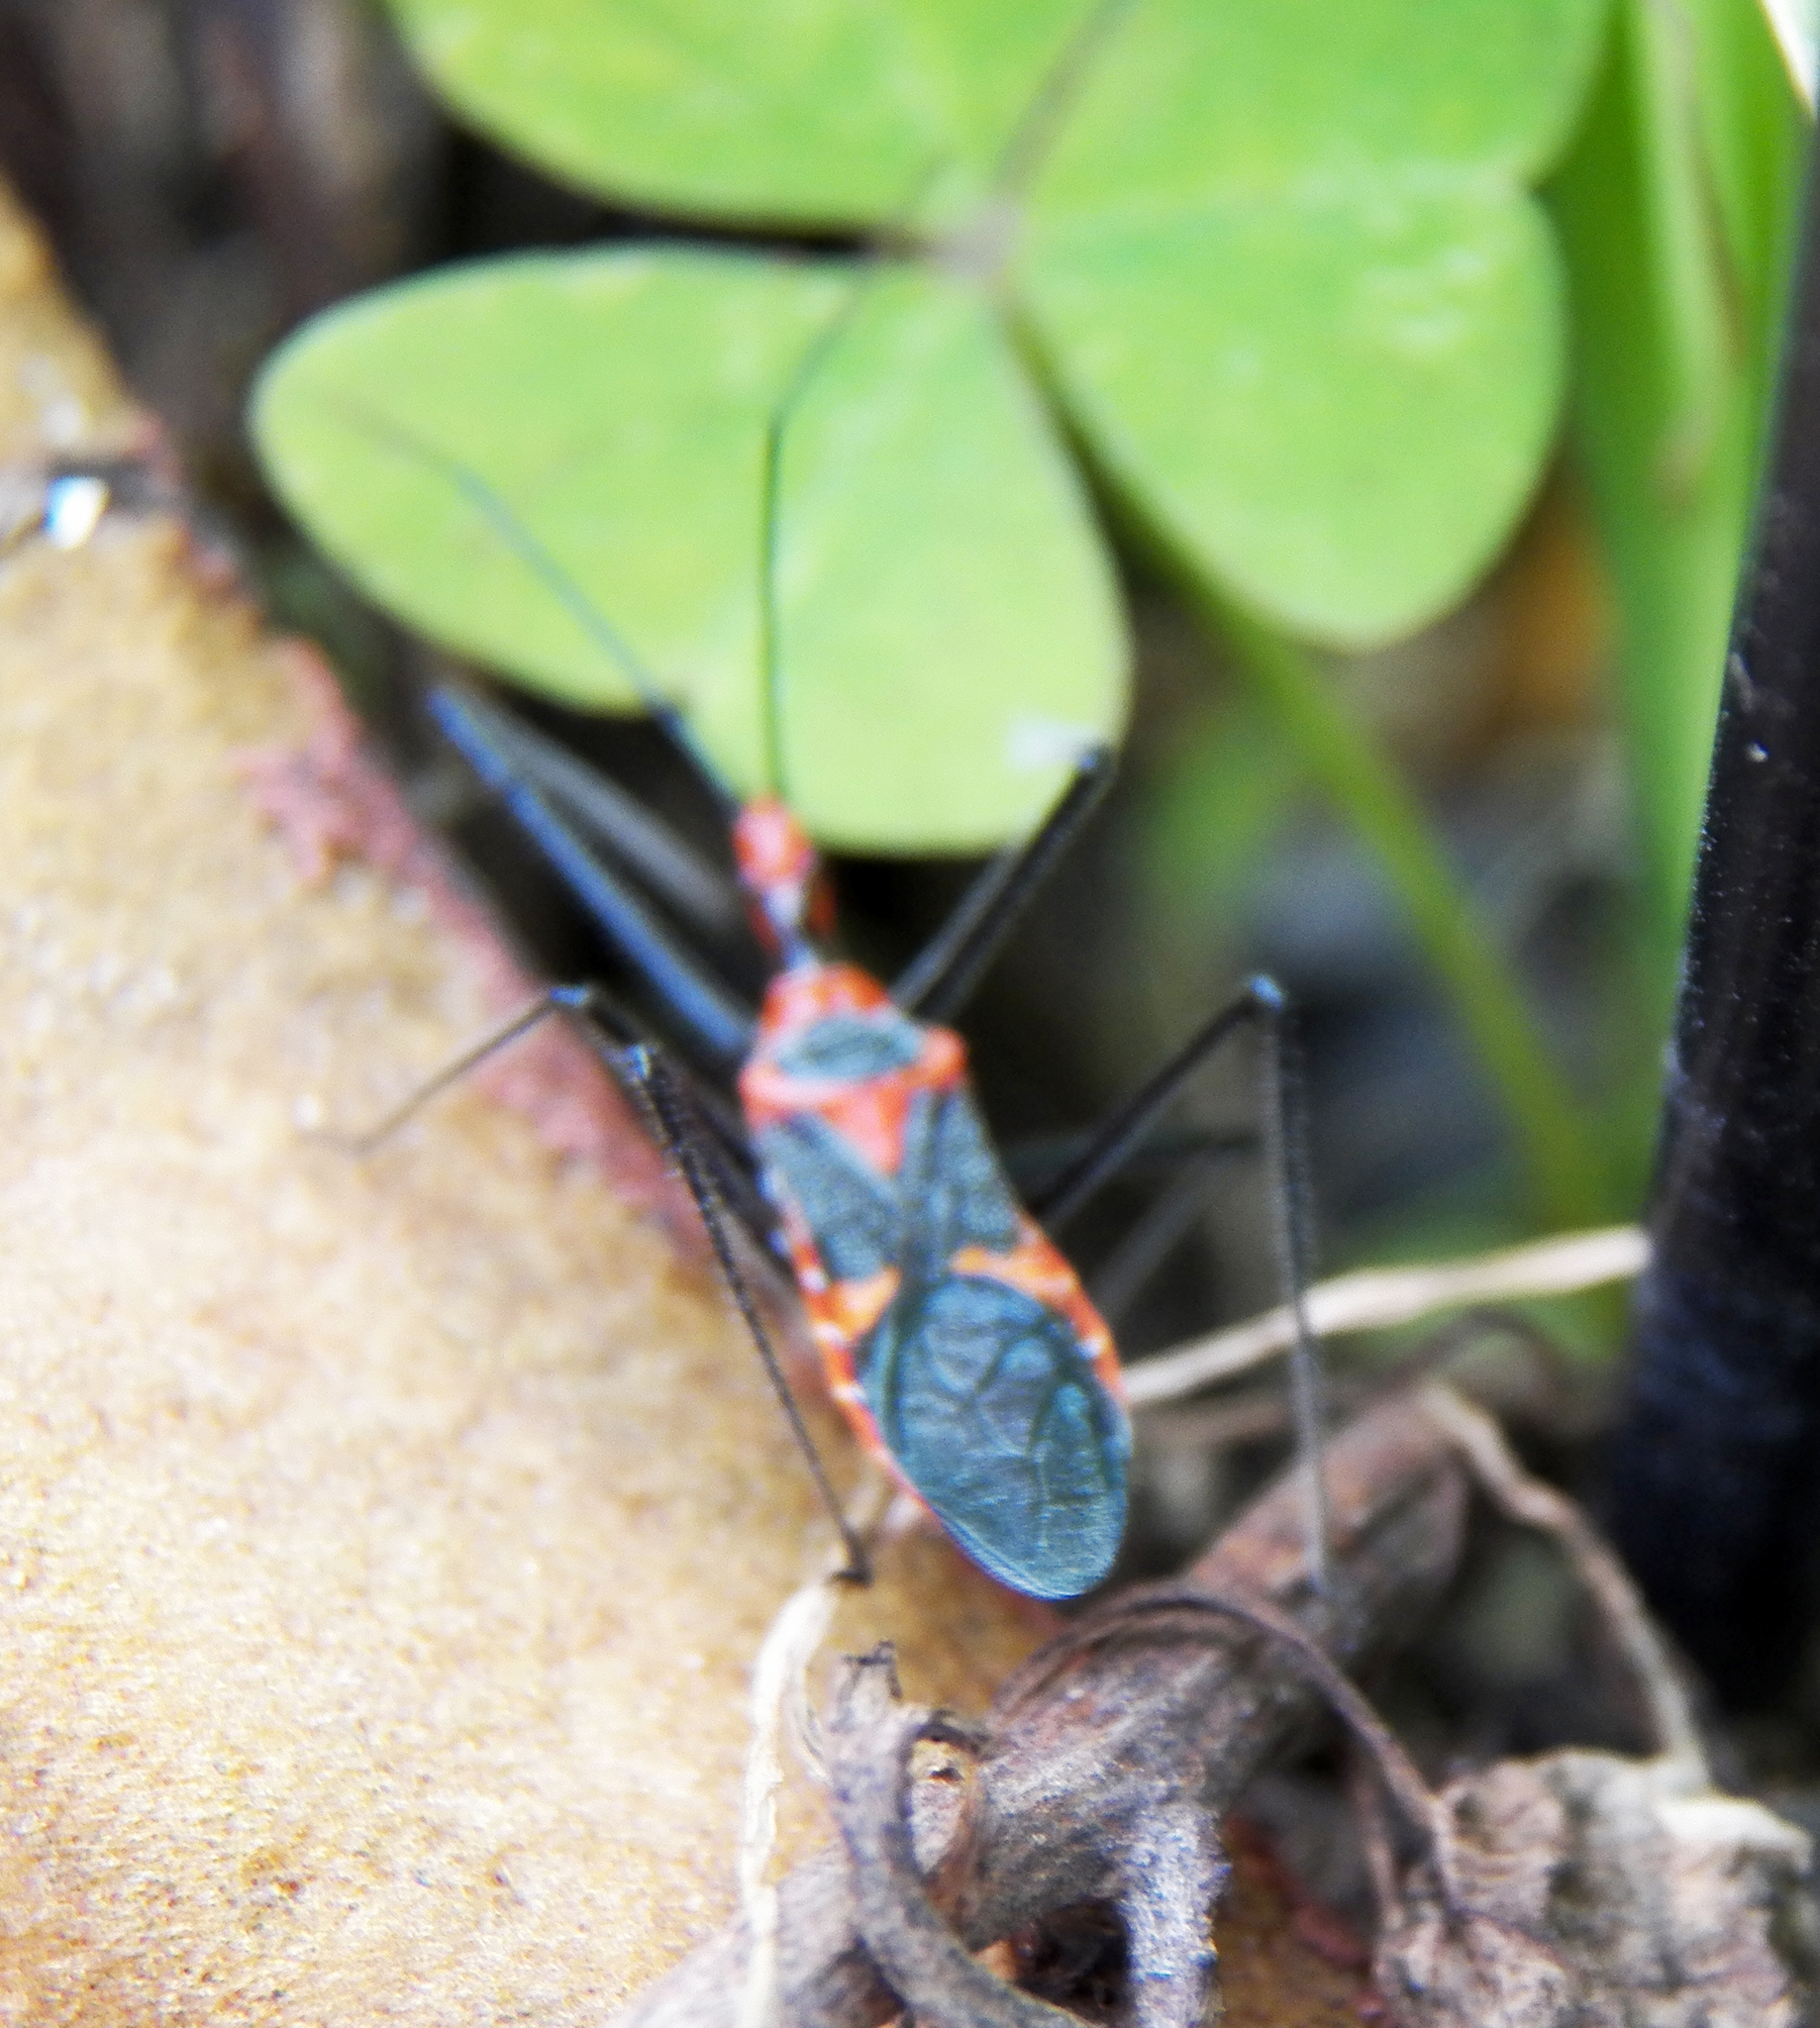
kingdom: Animalia
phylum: Arthropoda
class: Insecta
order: Hemiptera
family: Reduviidae
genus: Zelus
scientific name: Zelus longipes
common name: Milkweed assassin bug
